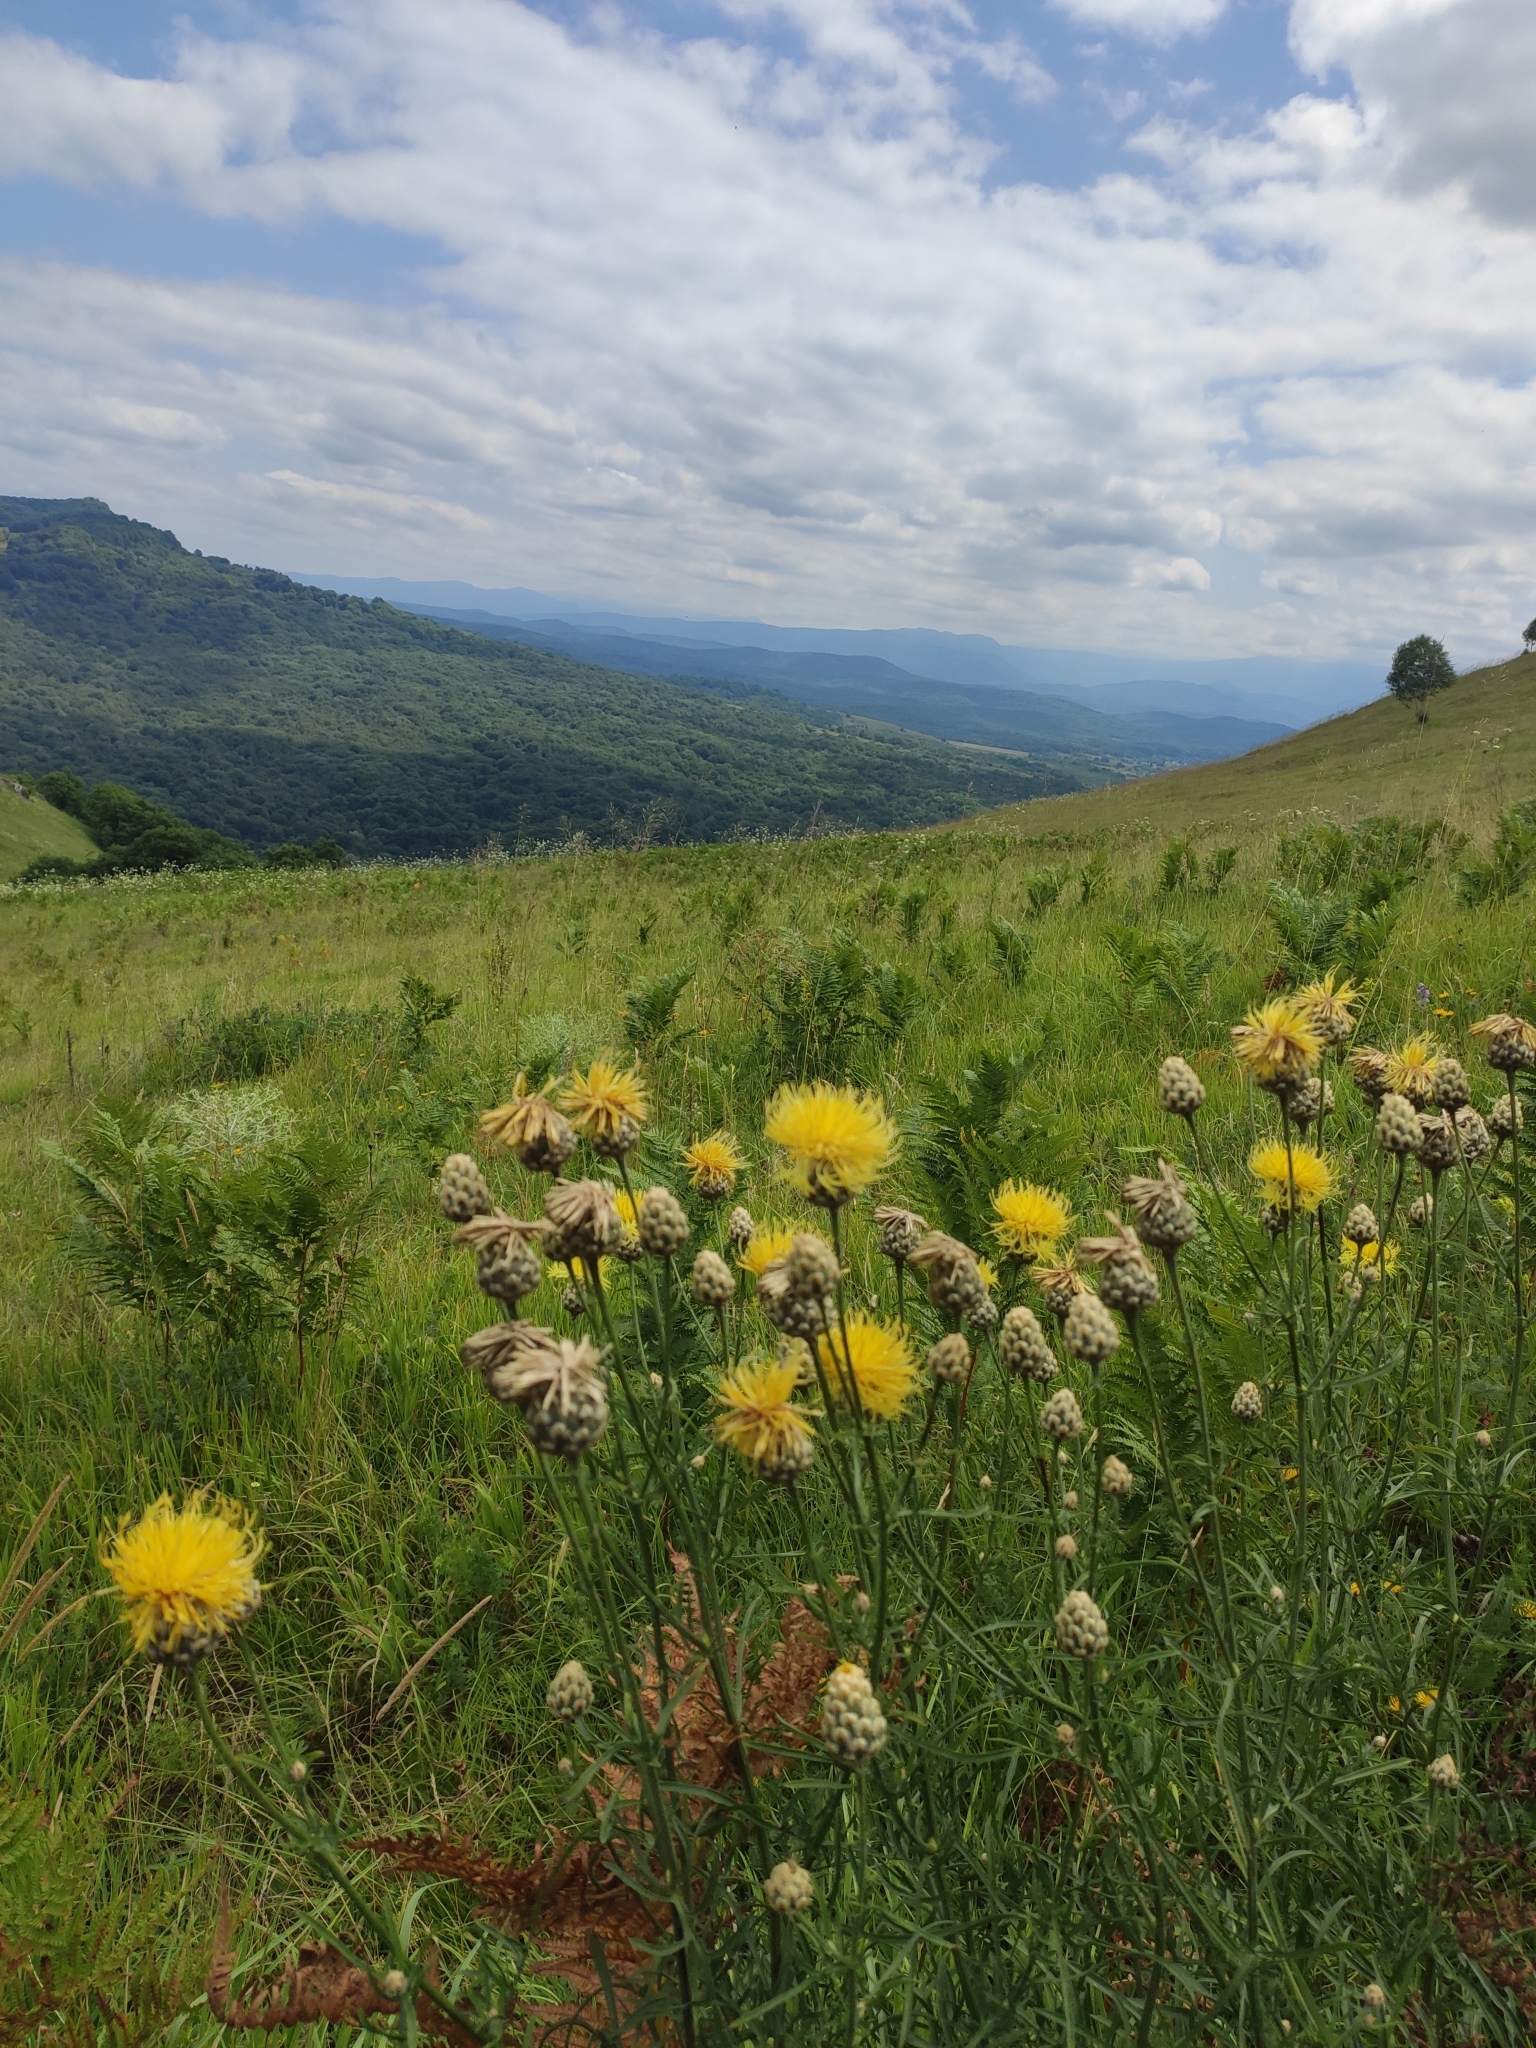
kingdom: Plantae
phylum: Tracheophyta
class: Magnoliopsida
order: Asterales
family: Asteraceae
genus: Centaurea
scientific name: Centaurea orientalis
